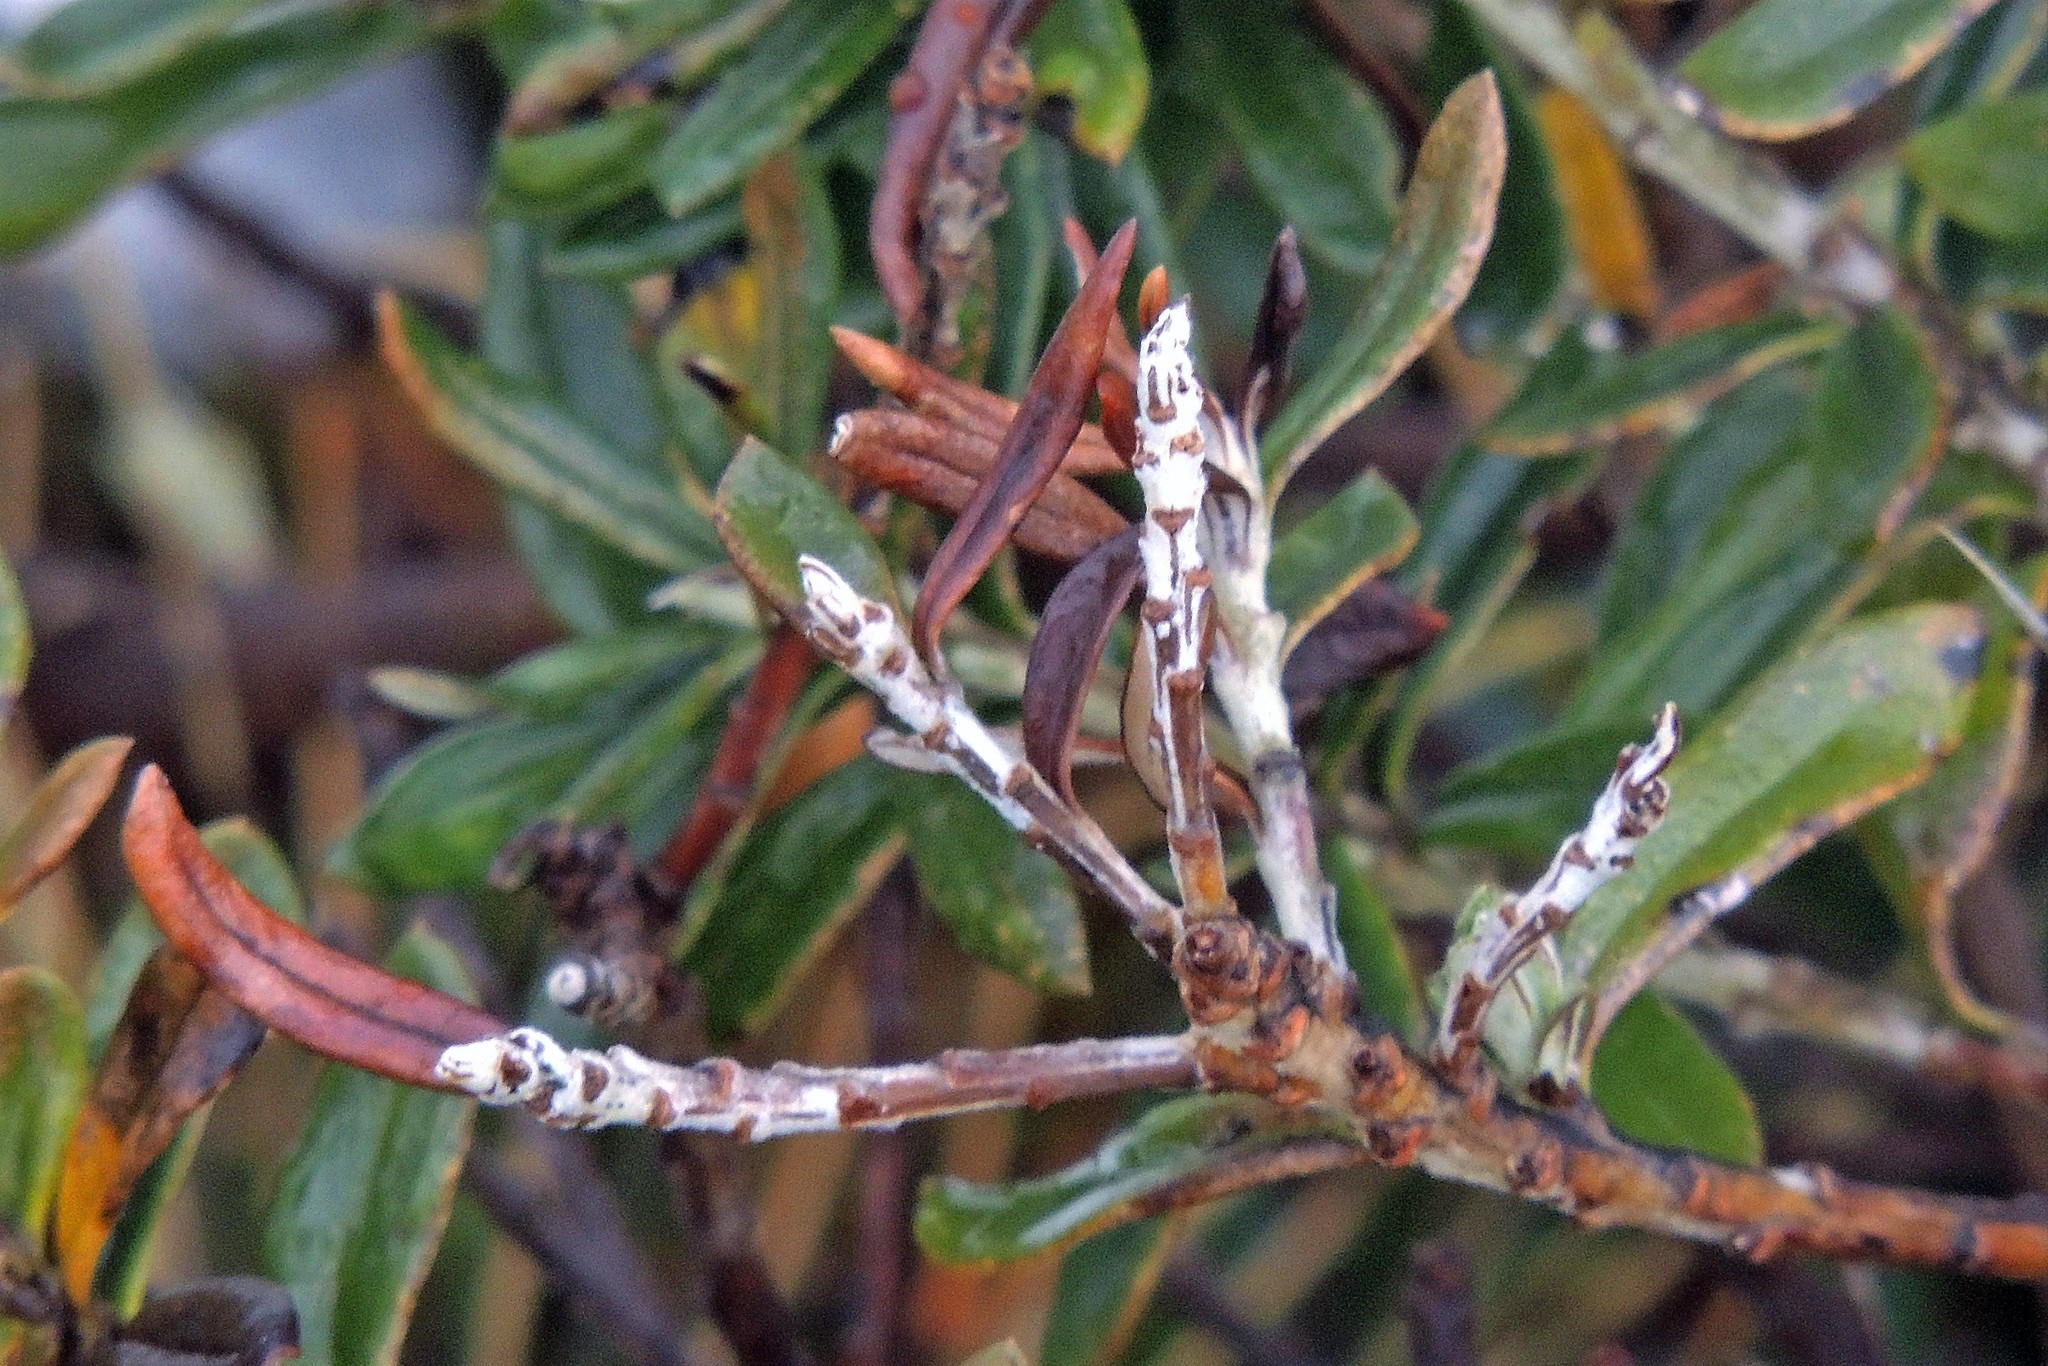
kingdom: Plantae
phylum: Tracheophyta
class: Magnoliopsida
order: Asterales
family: Asteraceae
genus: Chiliotrichum
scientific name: Chiliotrichum diffusum
